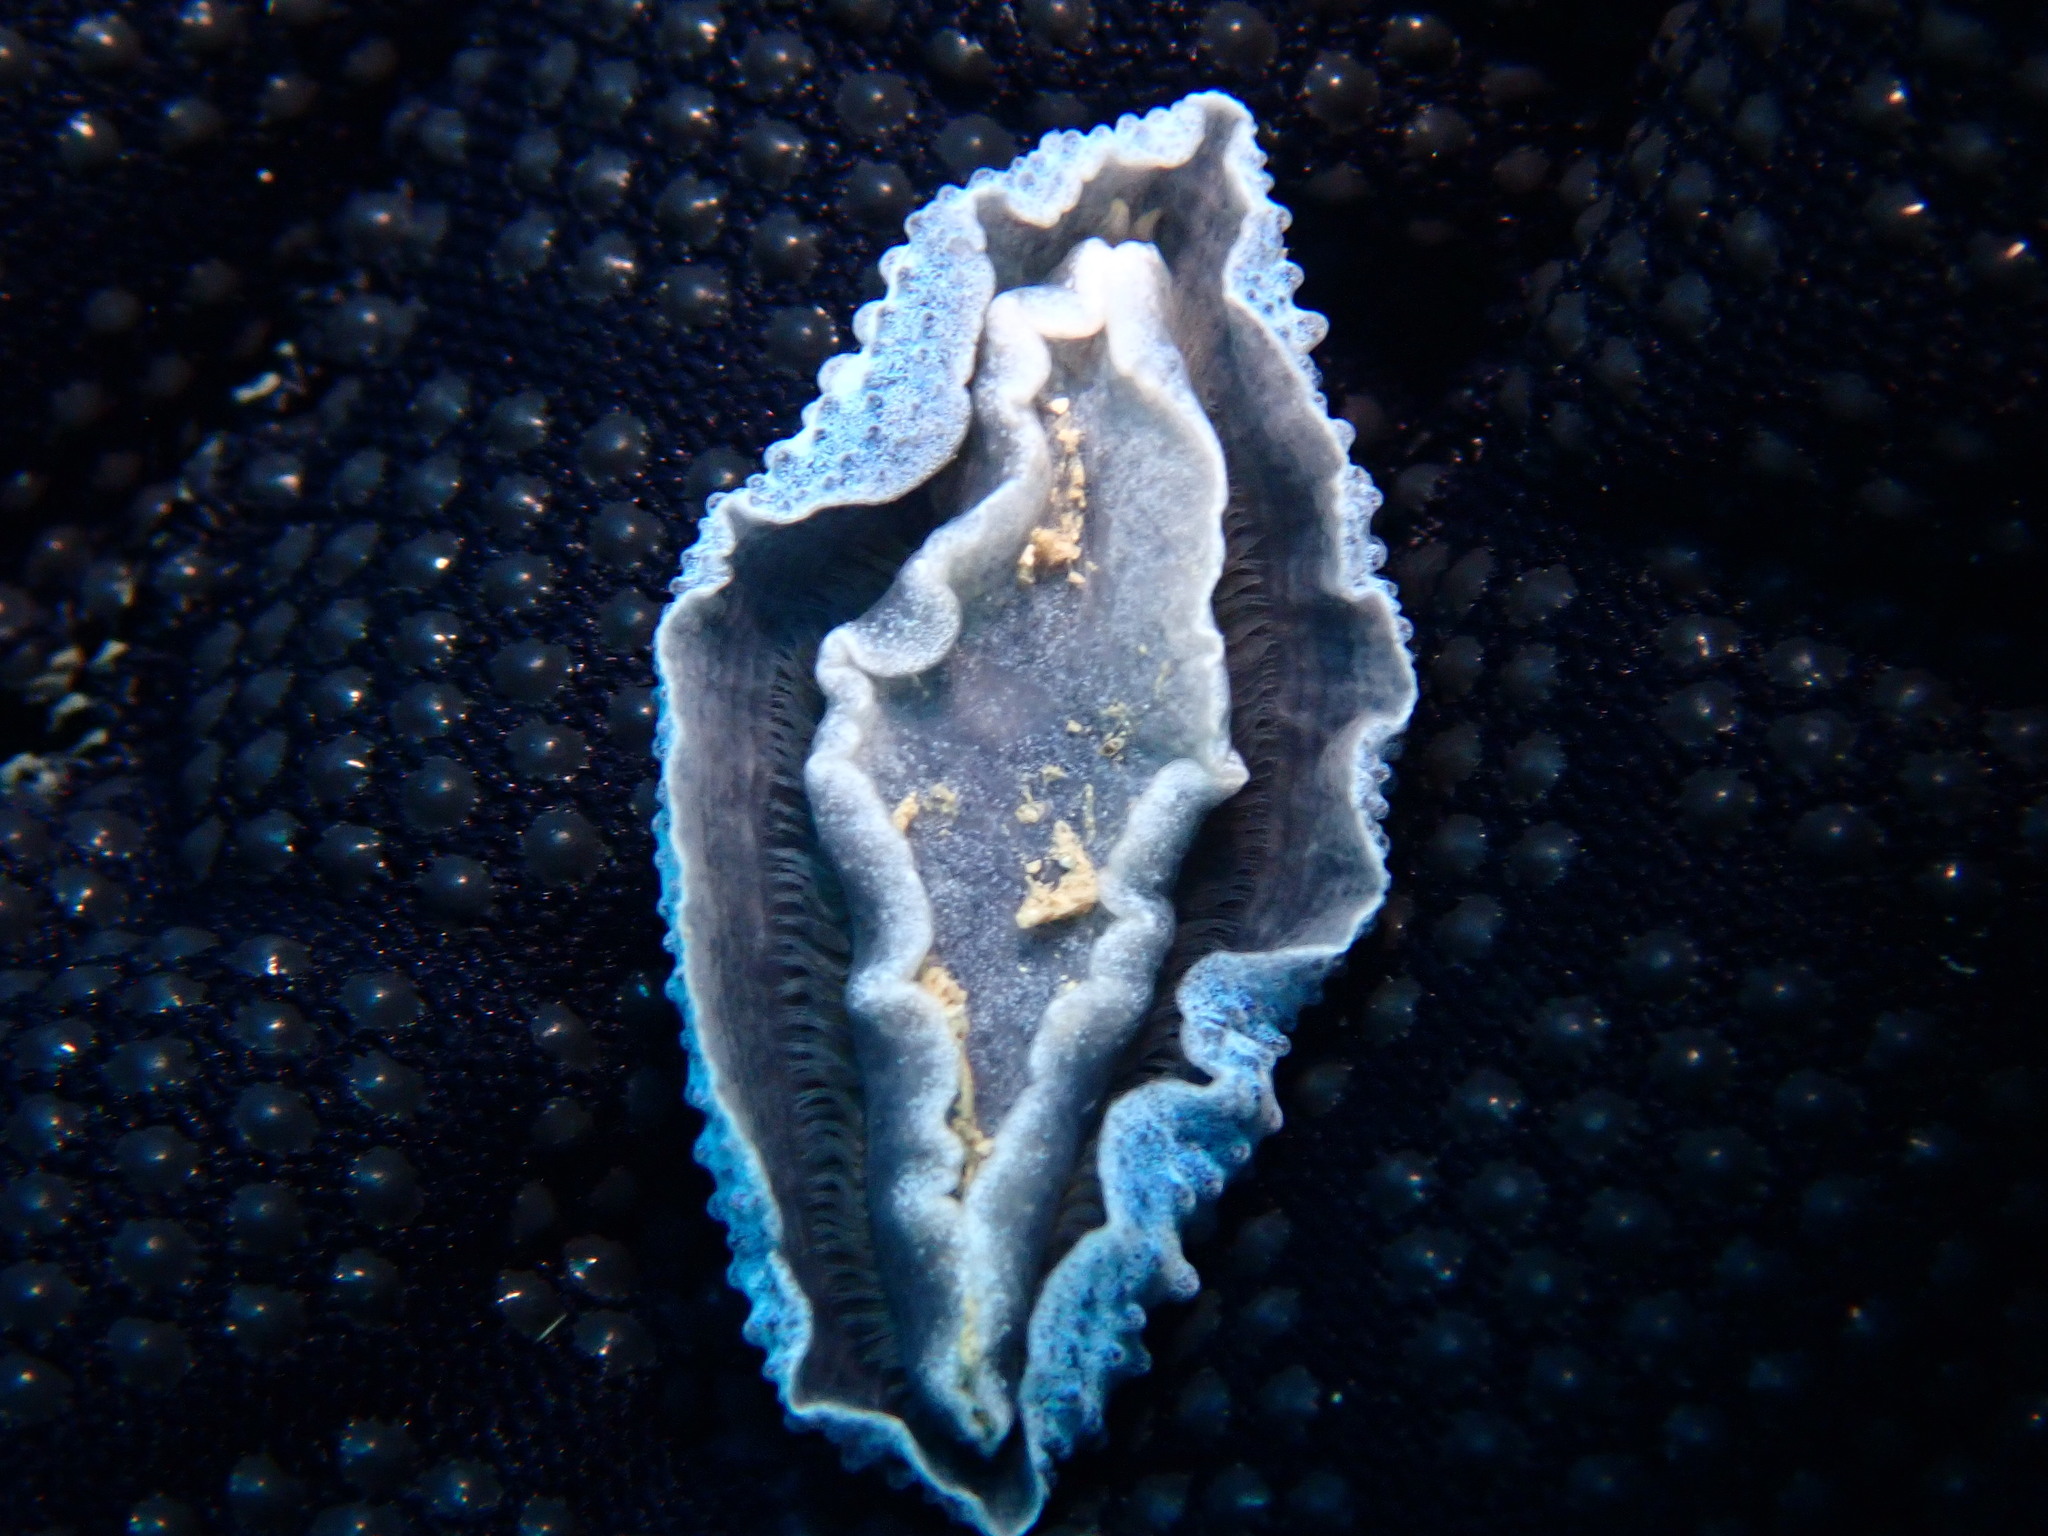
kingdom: Animalia
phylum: Mollusca
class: Gastropoda
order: Nudibranchia
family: Phyllidiidae
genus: Phyllidia
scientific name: Phyllidia coelestis
